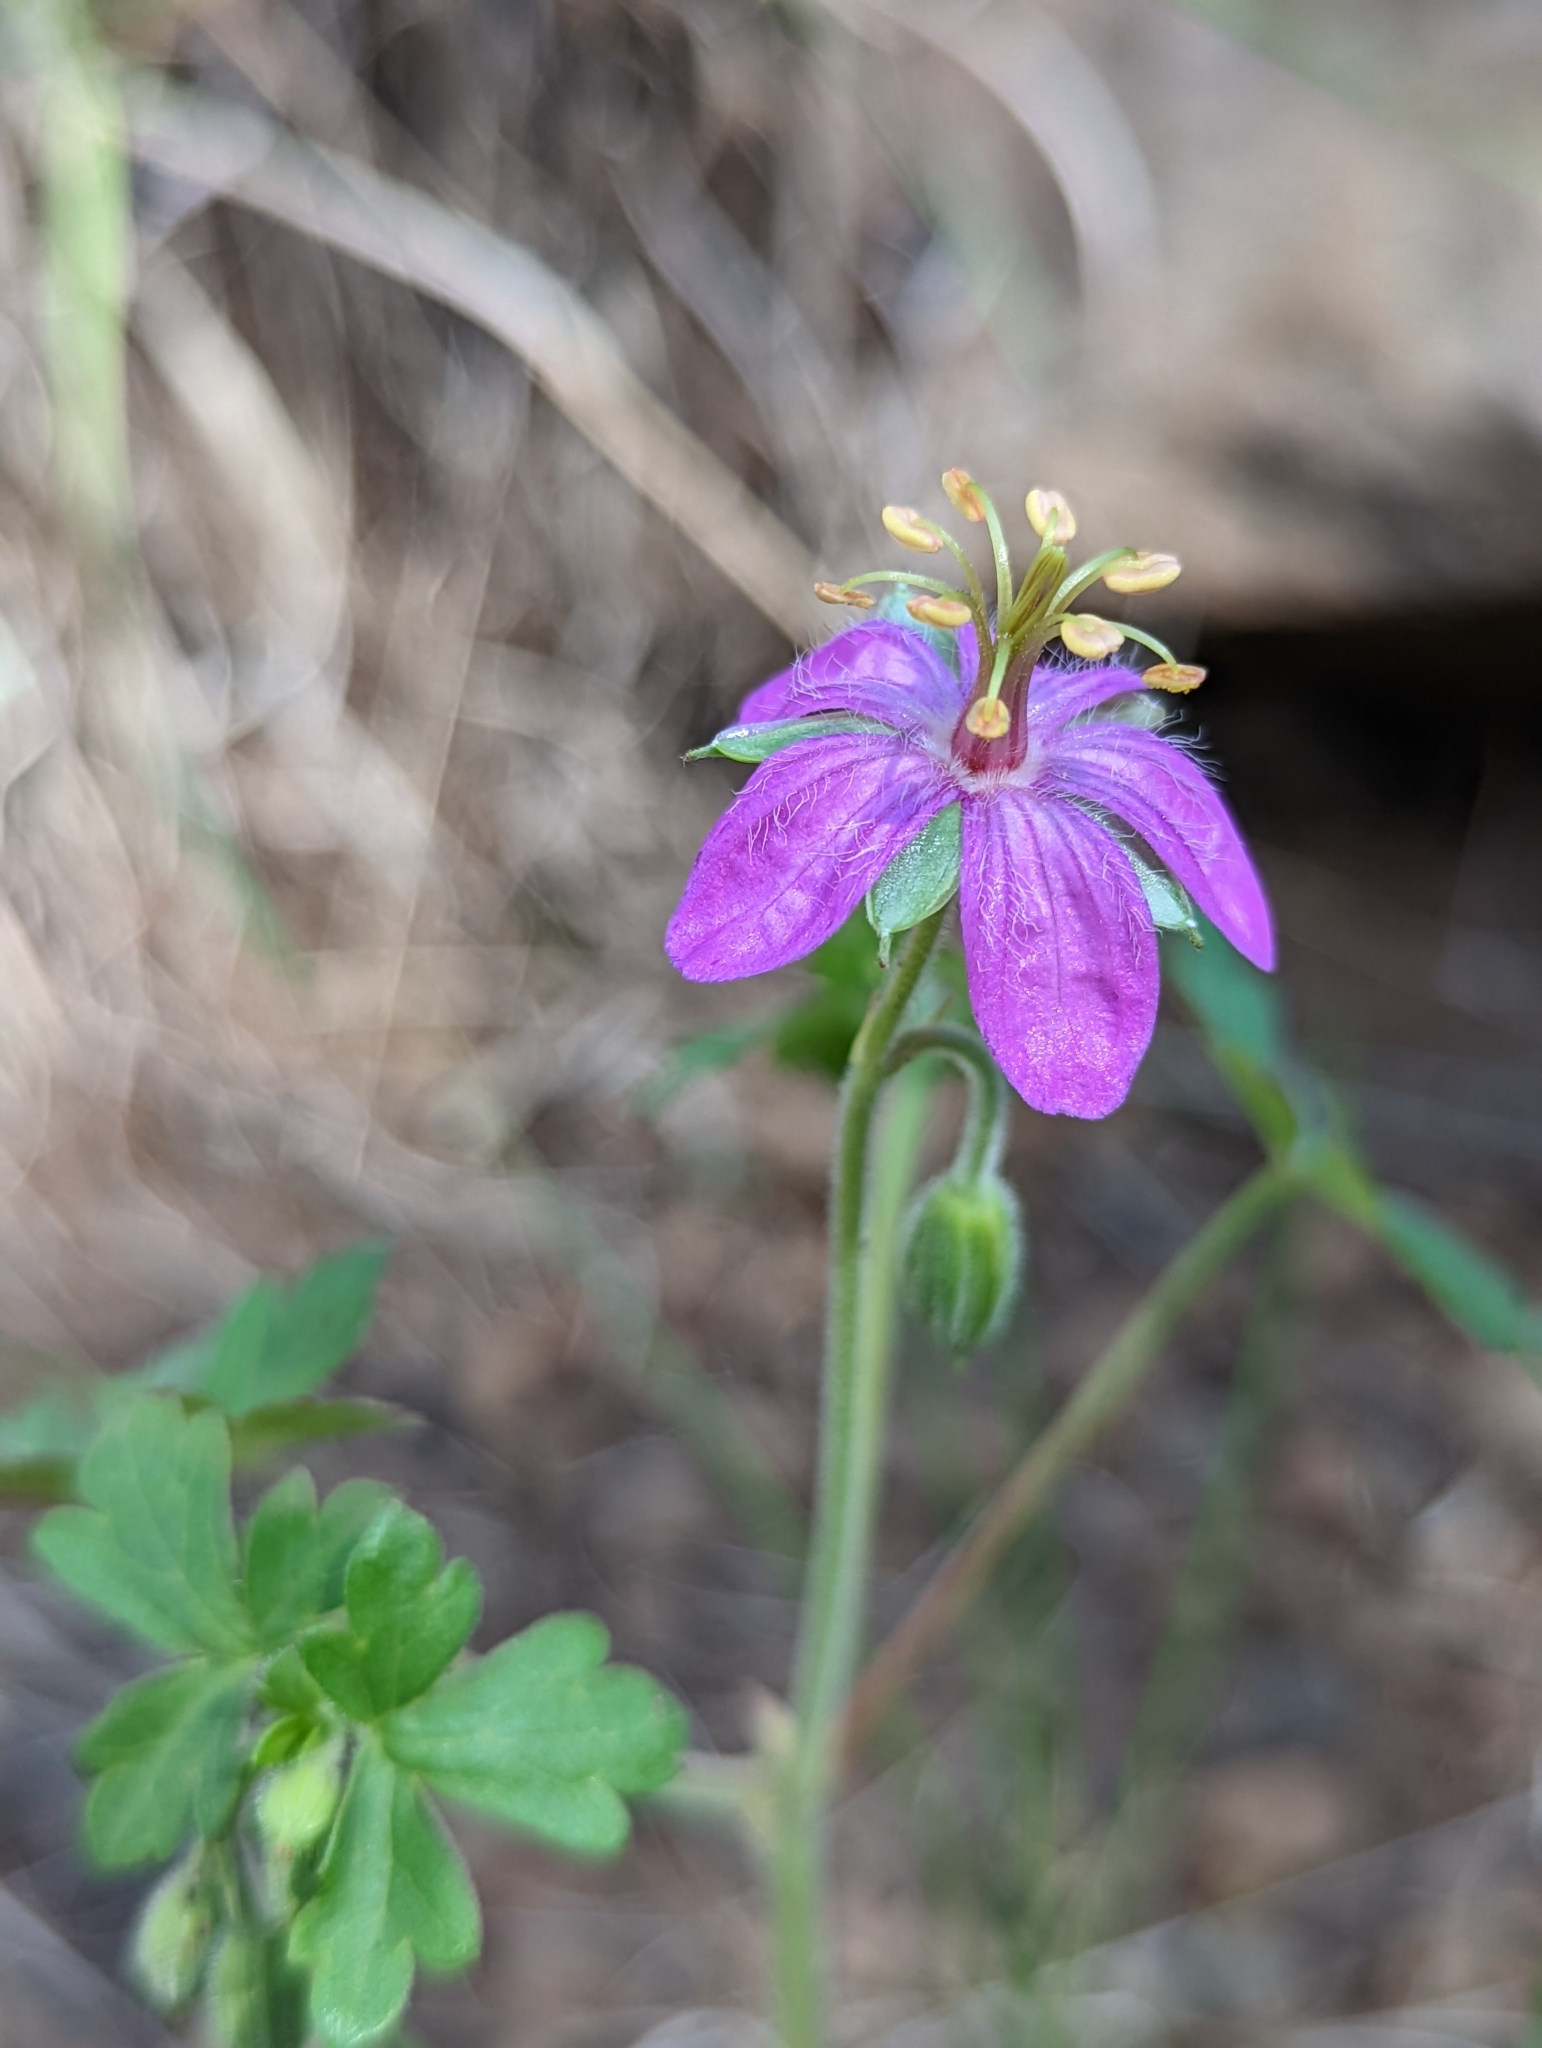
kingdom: Plantae
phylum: Tracheophyta
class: Magnoliopsida
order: Geraniales
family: Geraniaceae
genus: Geranium
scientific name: Geranium caespitosum
